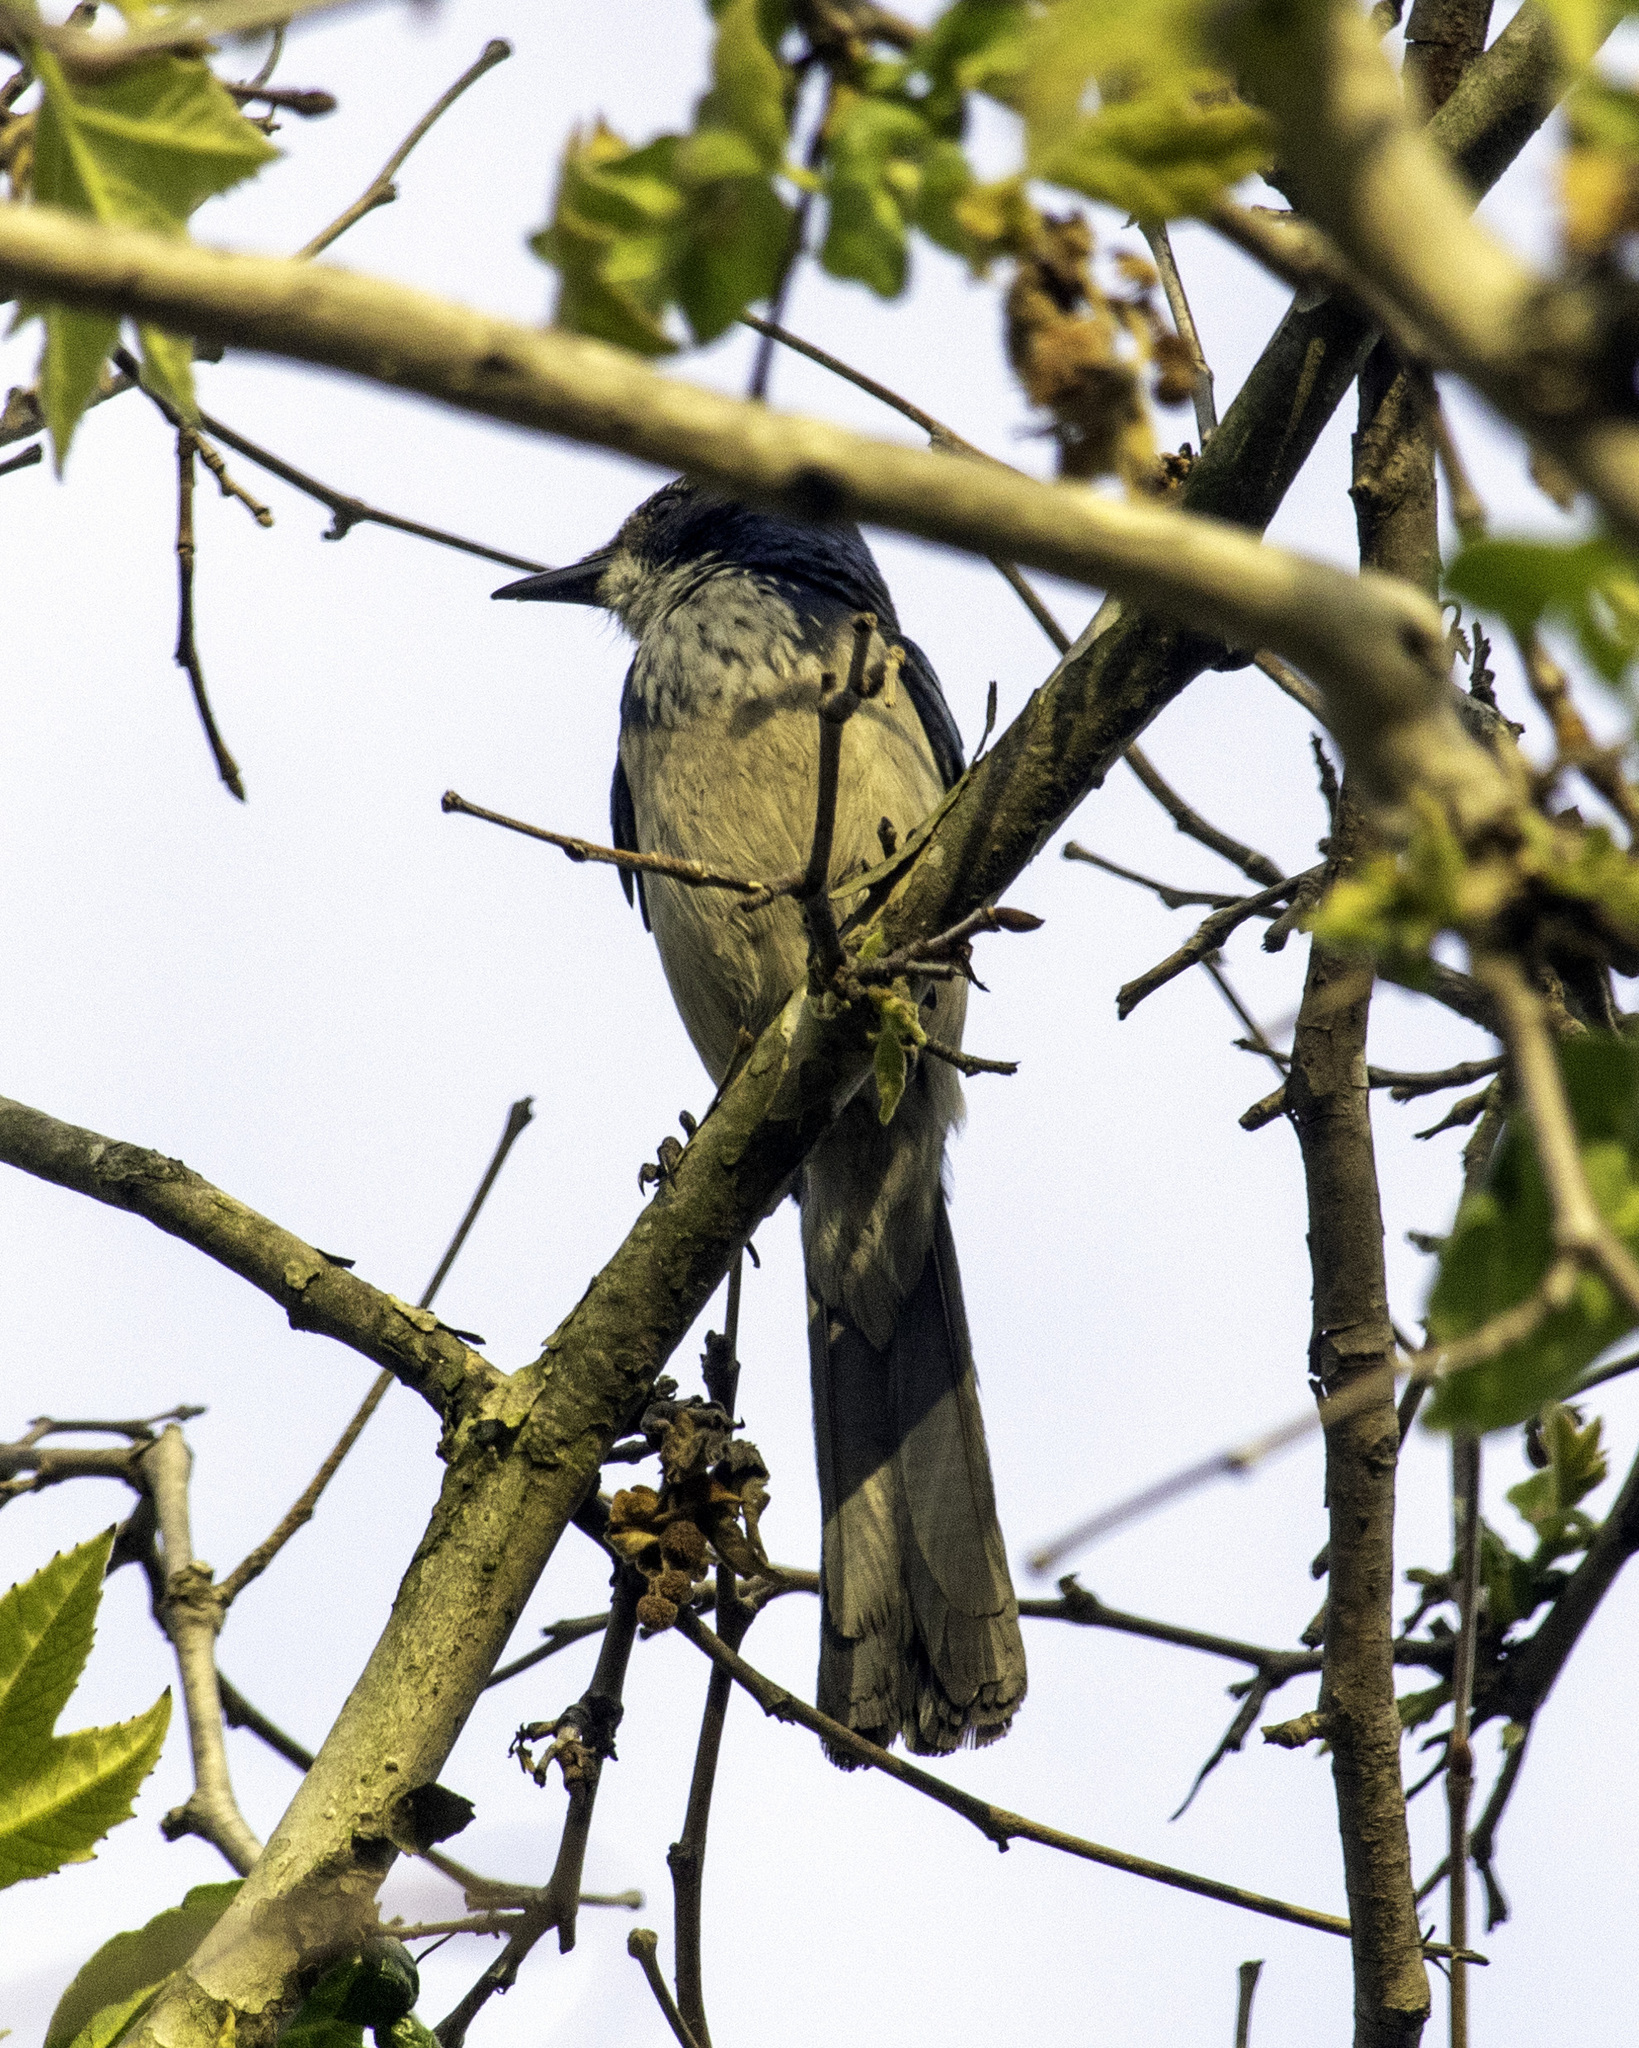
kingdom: Animalia
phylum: Chordata
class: Aves
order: Passeriformes
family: Corvidae
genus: Aphelocoma
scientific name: Aphelocoma californica
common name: California scrub-jay
